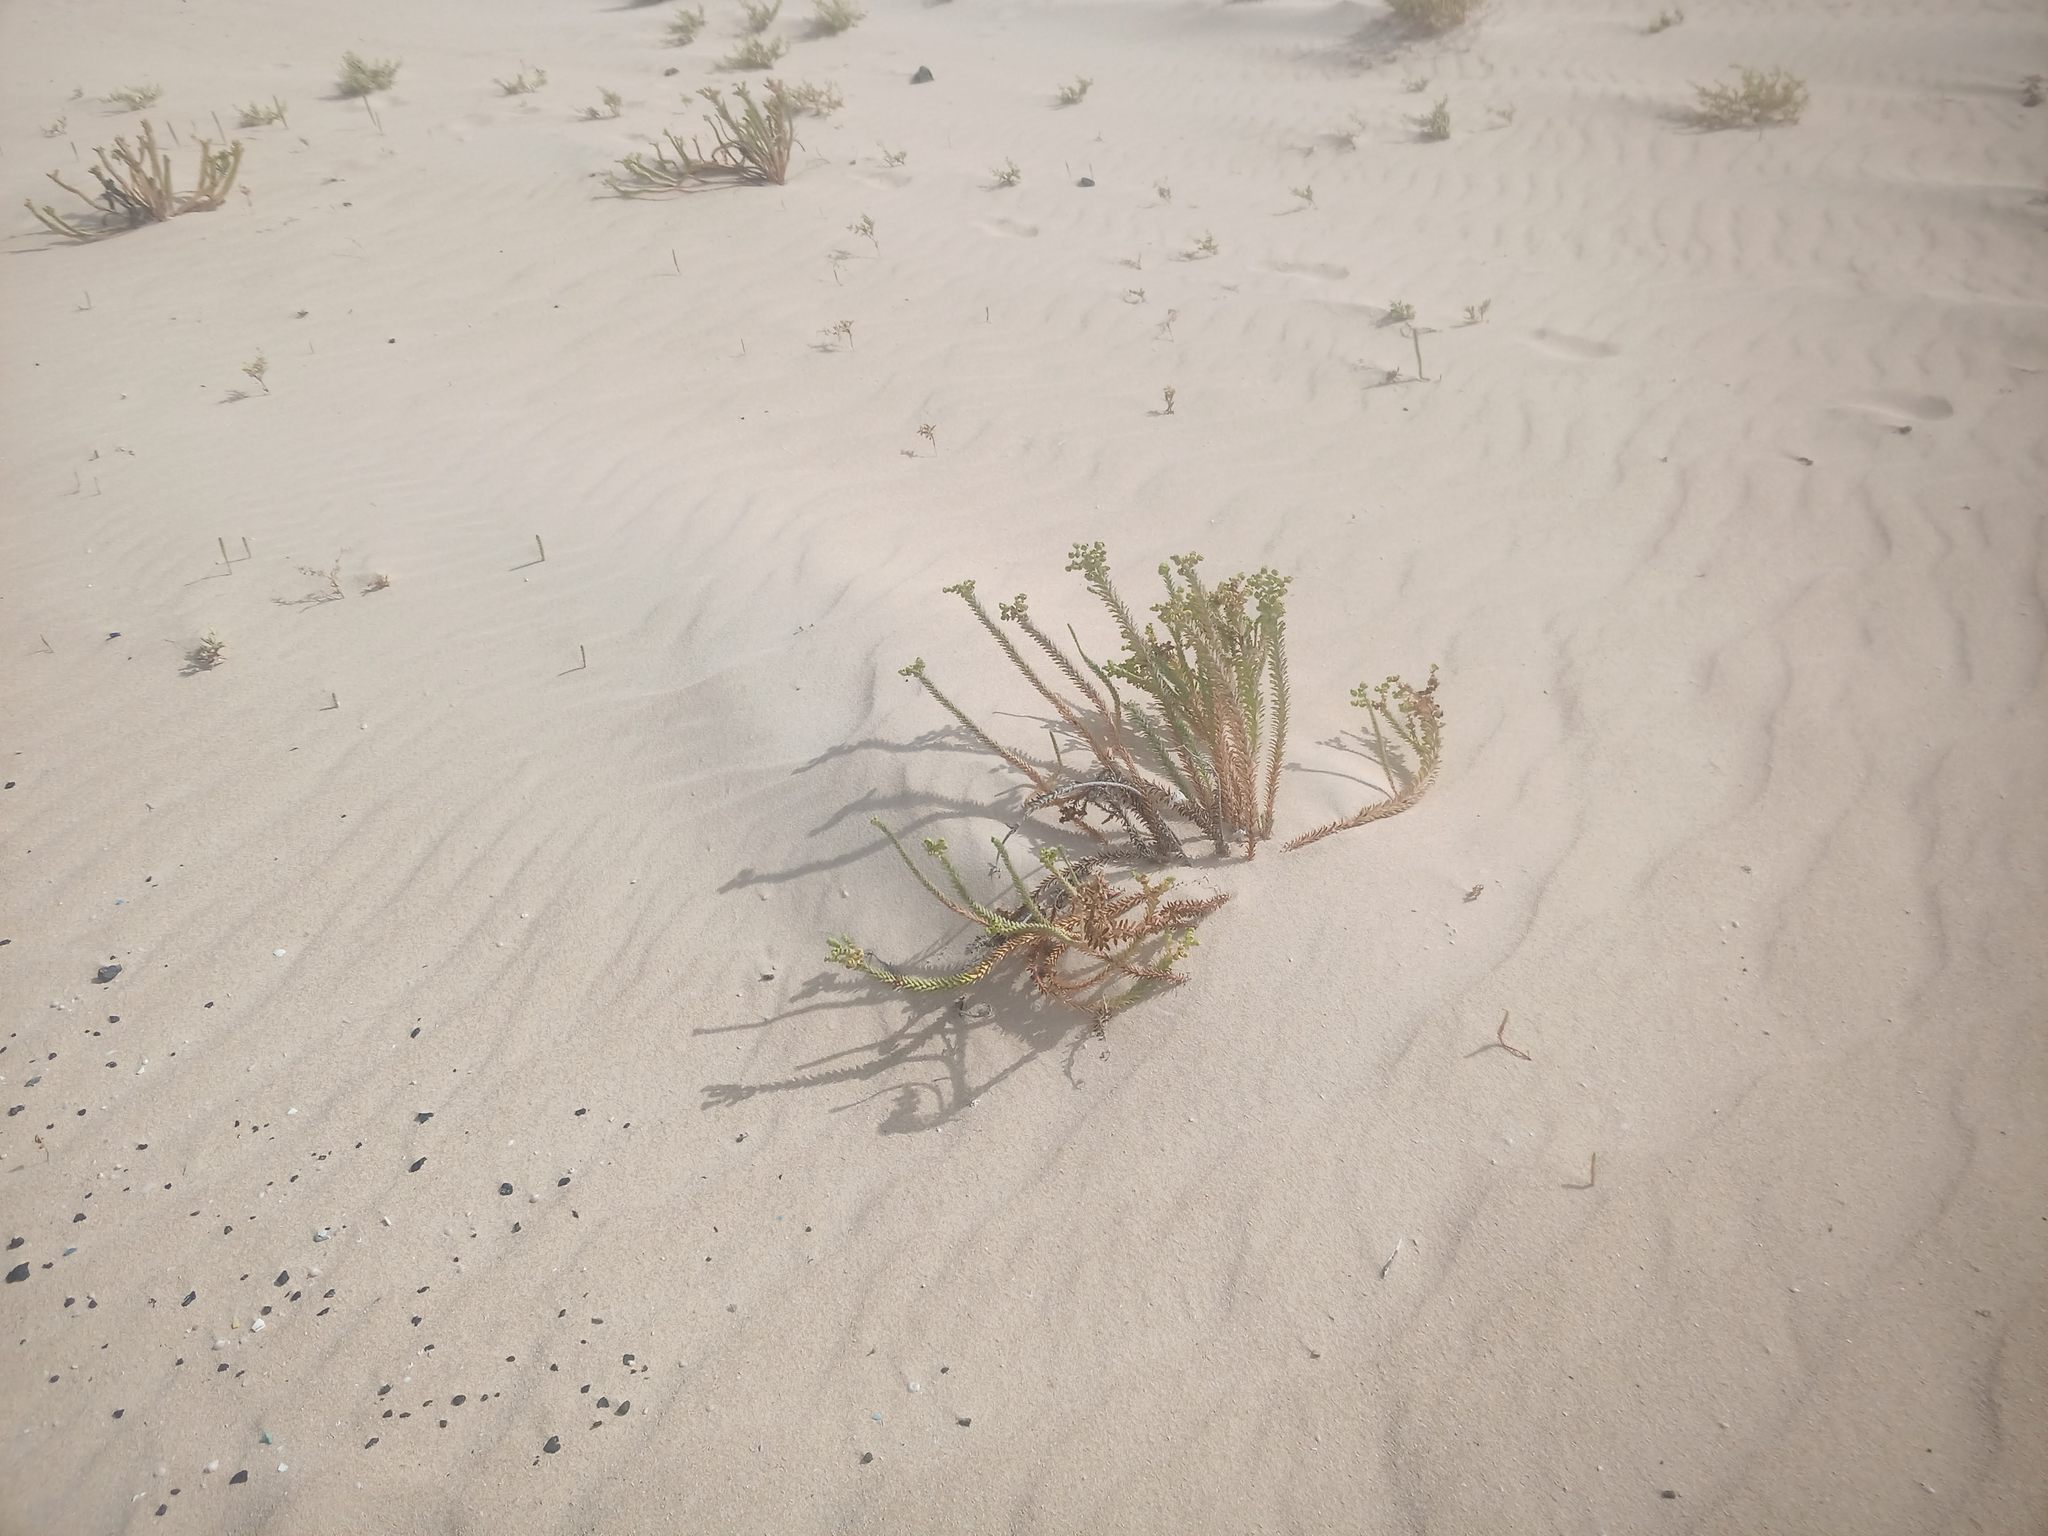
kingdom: Plantae
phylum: Tracheophyta
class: Magnoliopsida
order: Malpighiales
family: Euphorbiaceae
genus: Euphorbia
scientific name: Euphorbia paralias
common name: Sea spurge
